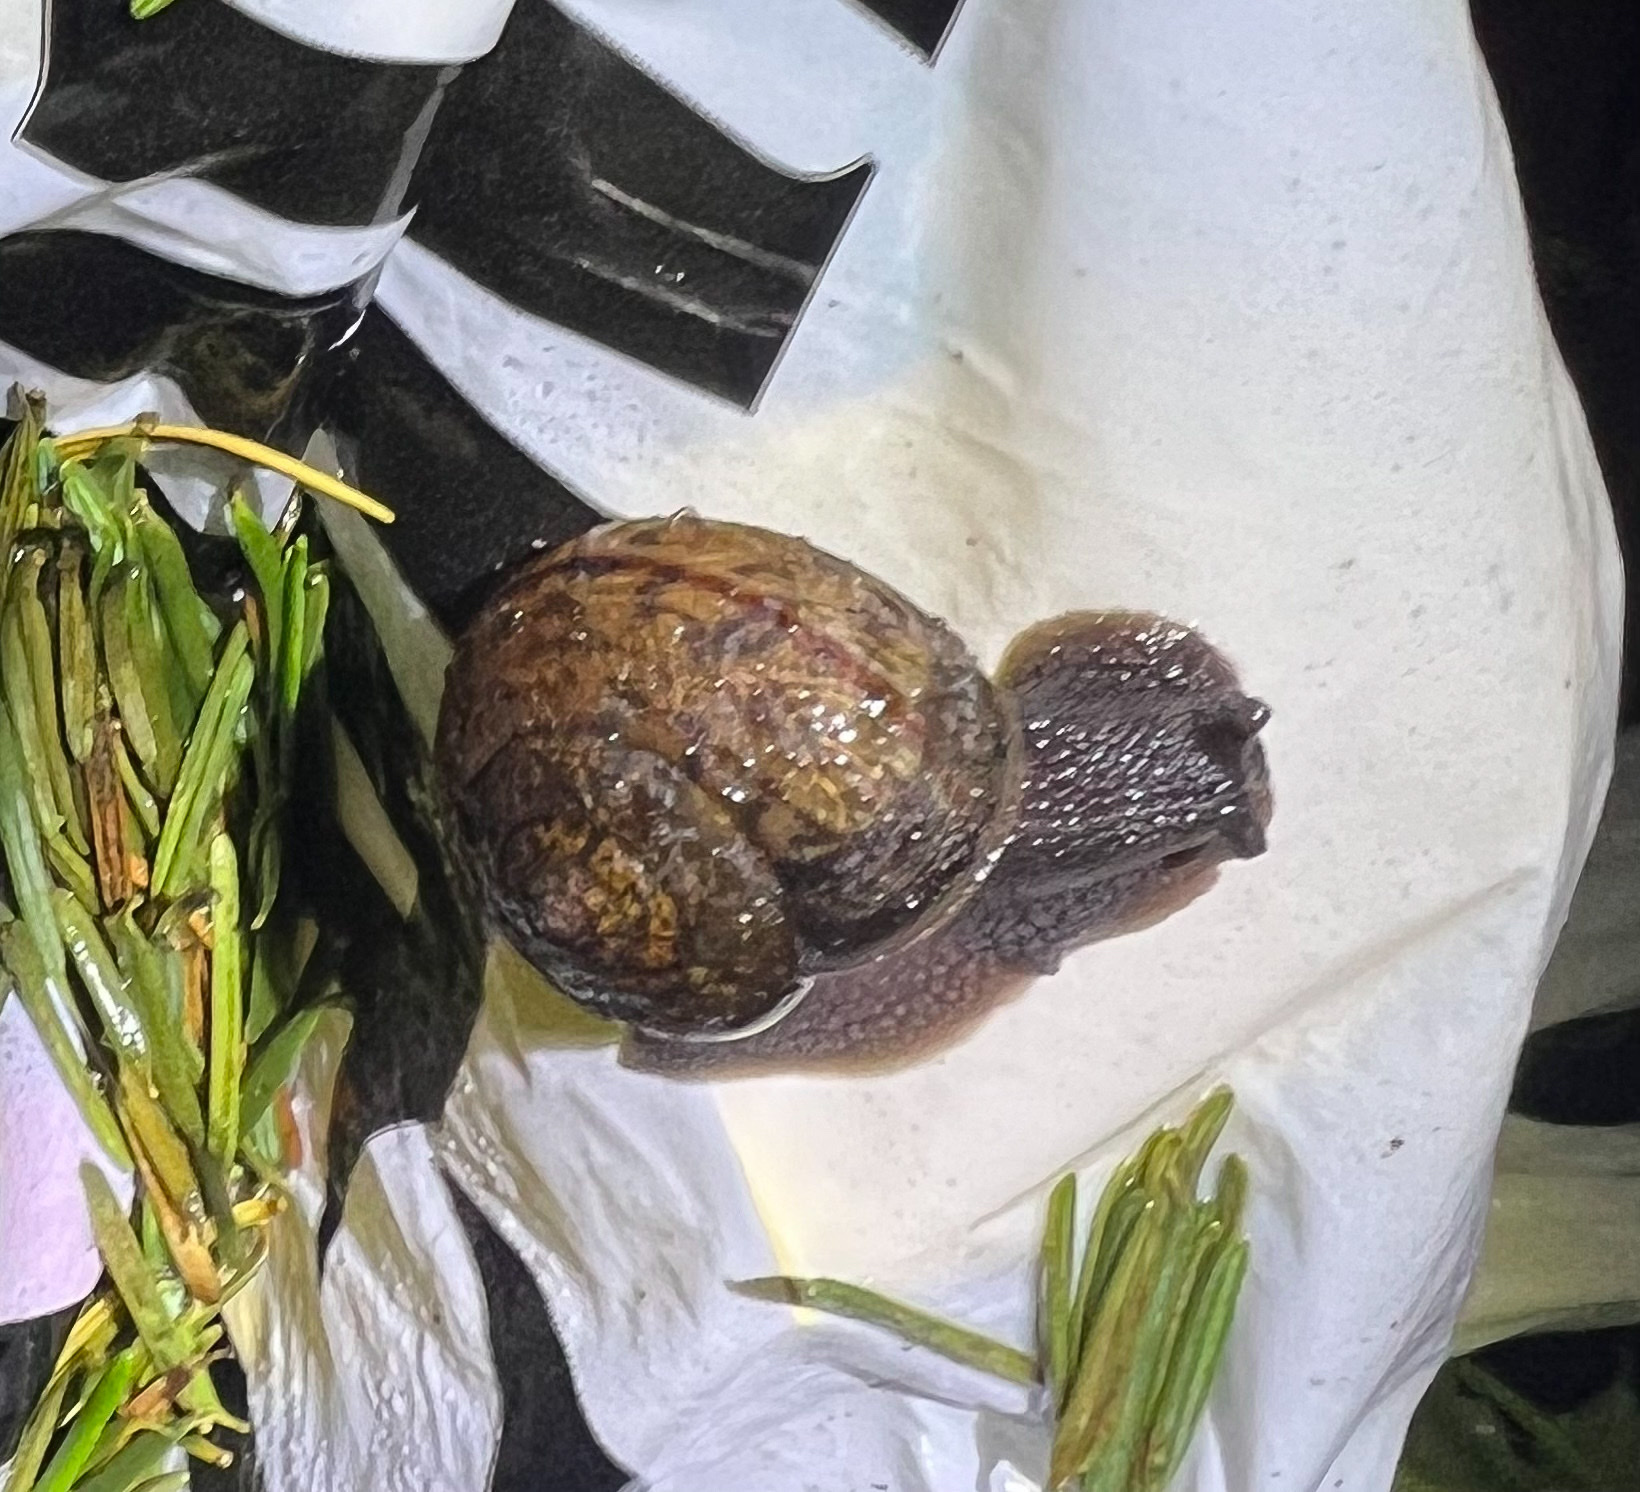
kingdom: Animalia
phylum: Mollusca
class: Gastropoda
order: Stylommatophora
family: Xanthonychidae
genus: Helminthoglypta
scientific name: Helminthoglypta nickliniana
